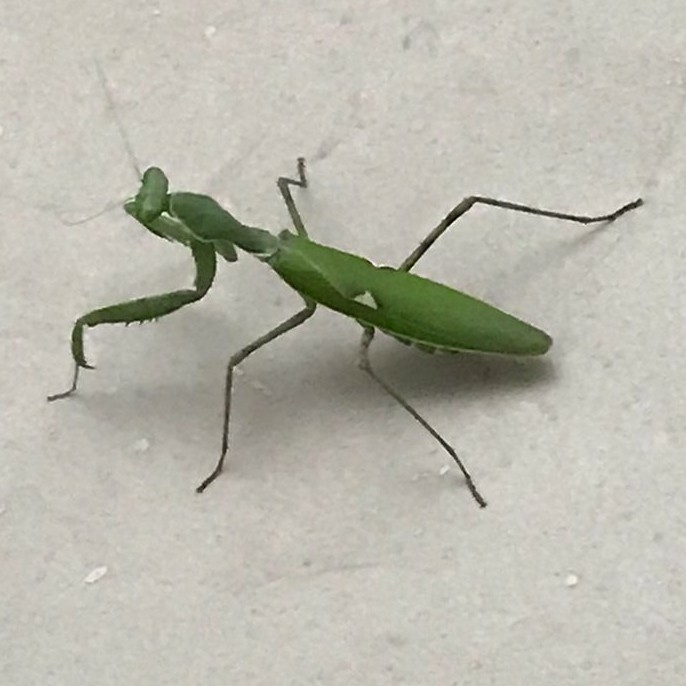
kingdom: Animalia
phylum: Arthropoda
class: Insecta
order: Mantodea
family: Mantidae
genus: Hierodula
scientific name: Hierodula coarctata
